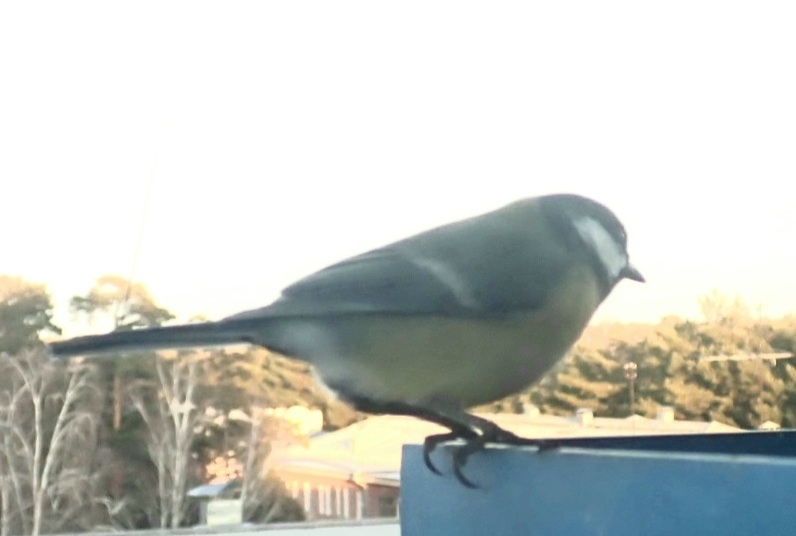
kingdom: Animalia
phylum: Chordata
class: Aves
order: Passeriformes
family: Paridae
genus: Parus
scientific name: Parus major
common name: Great tit
